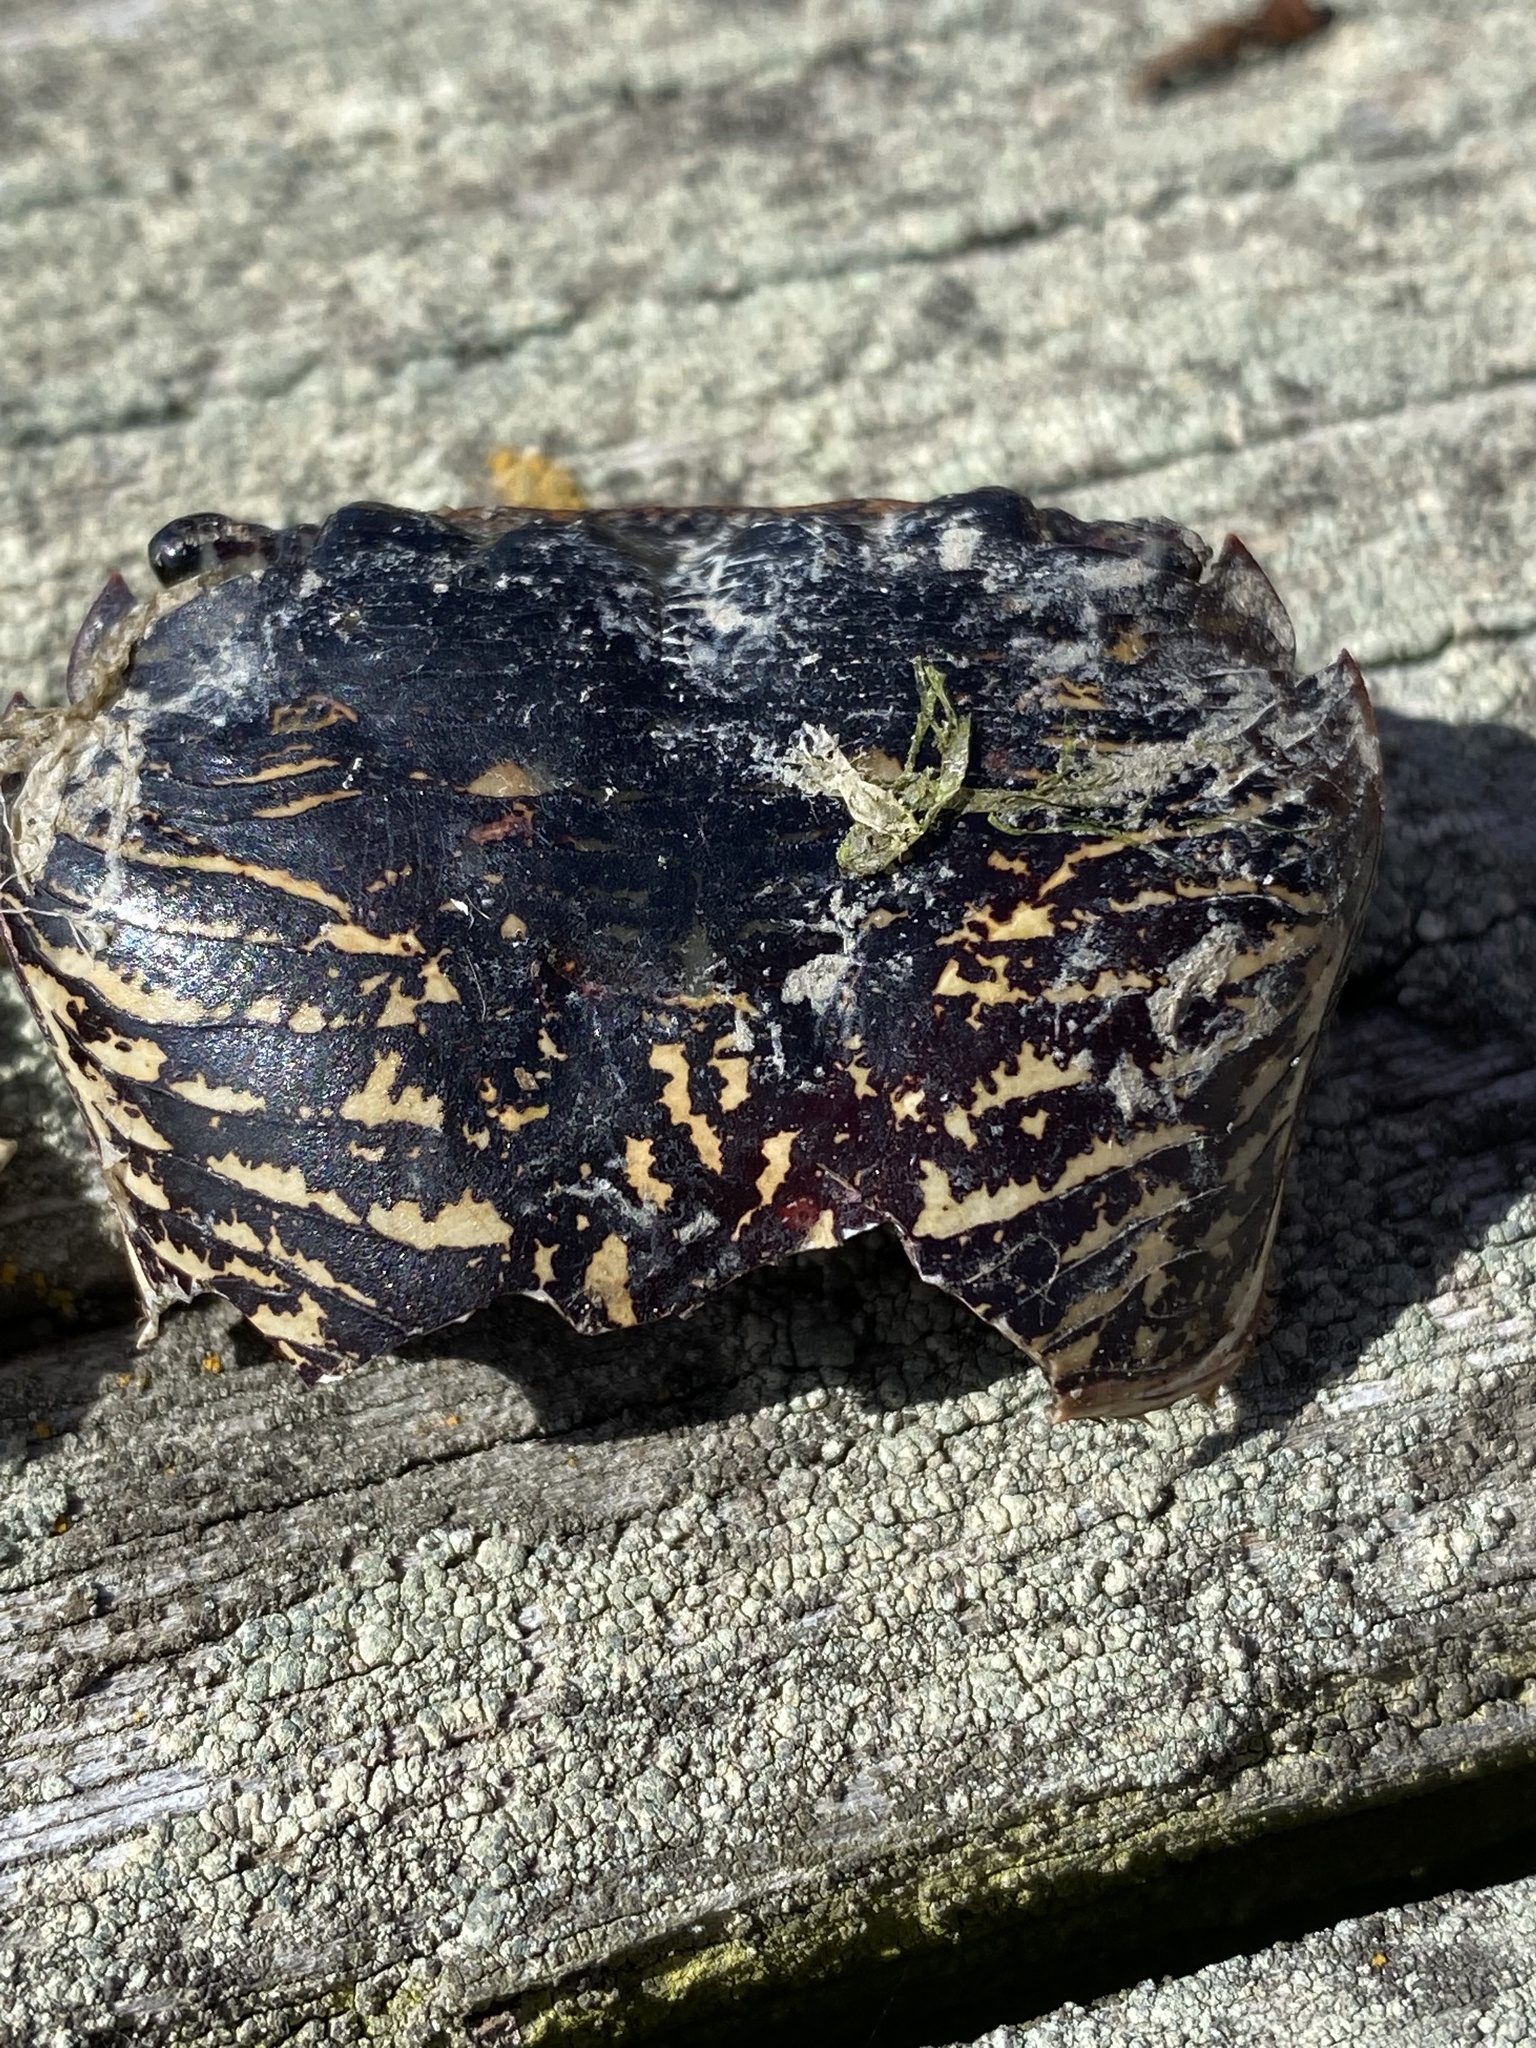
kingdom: Animalia
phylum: Arthropoda
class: Malacostraca
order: Decapoda
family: Grapsidae
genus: Pachygrapsus
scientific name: Pachygrapsus crassipes
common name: Striped shore crab
